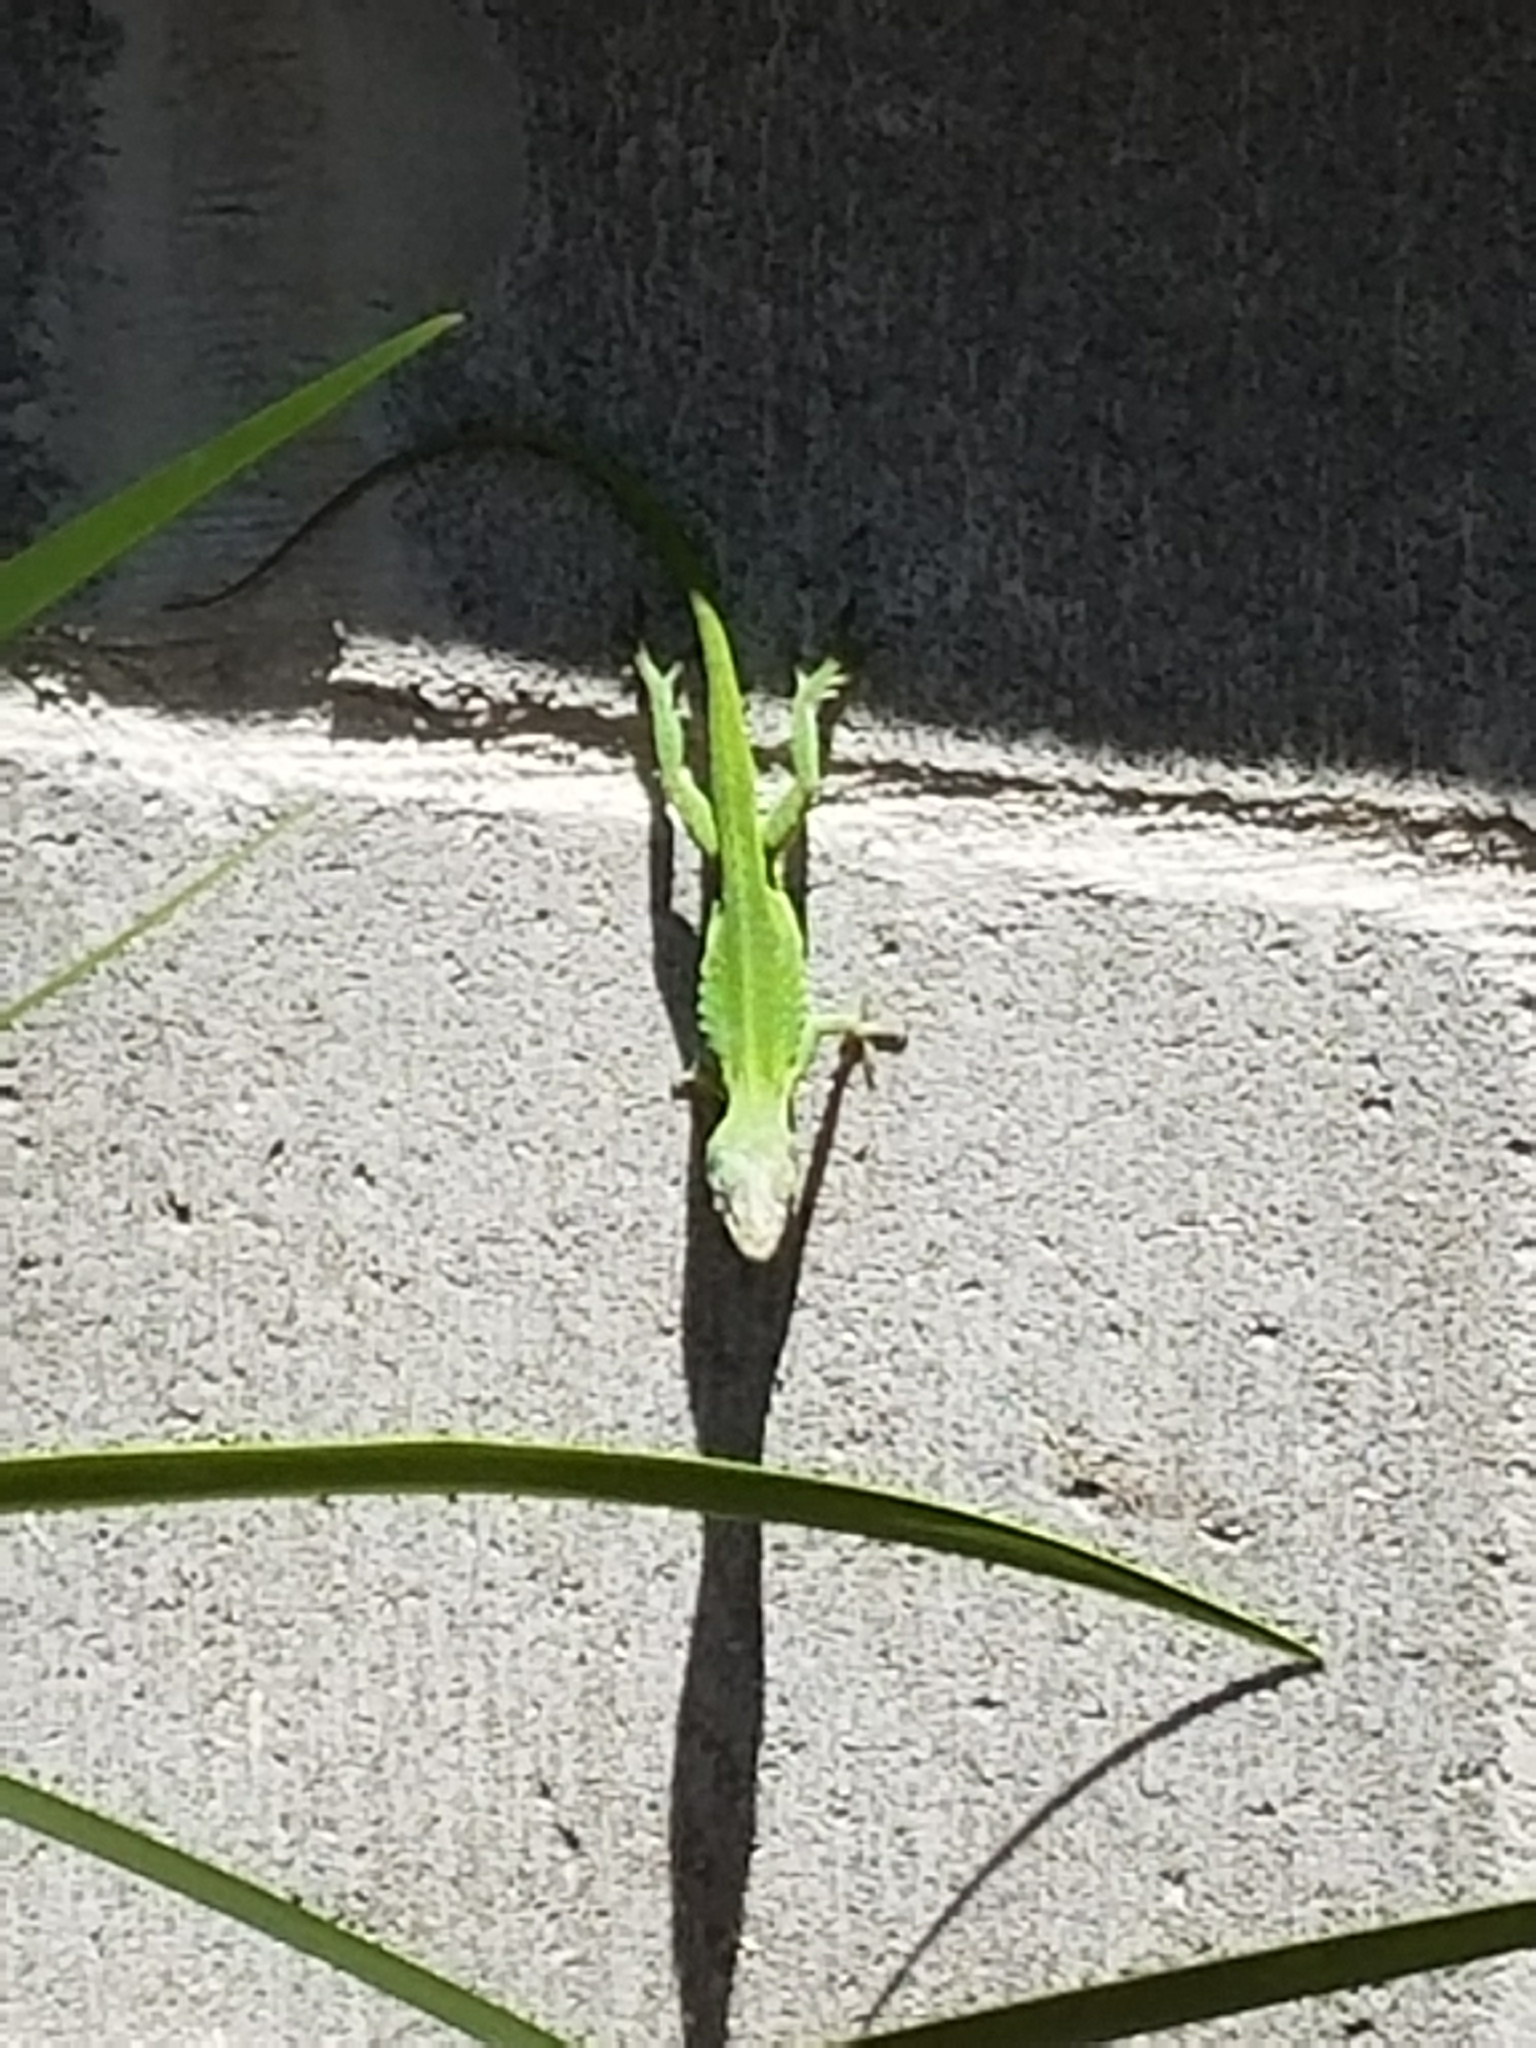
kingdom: Animalia
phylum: Chordata
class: Squamata
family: Dactyloidae
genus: Anolis
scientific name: Anolis carolinensis
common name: Green anole
